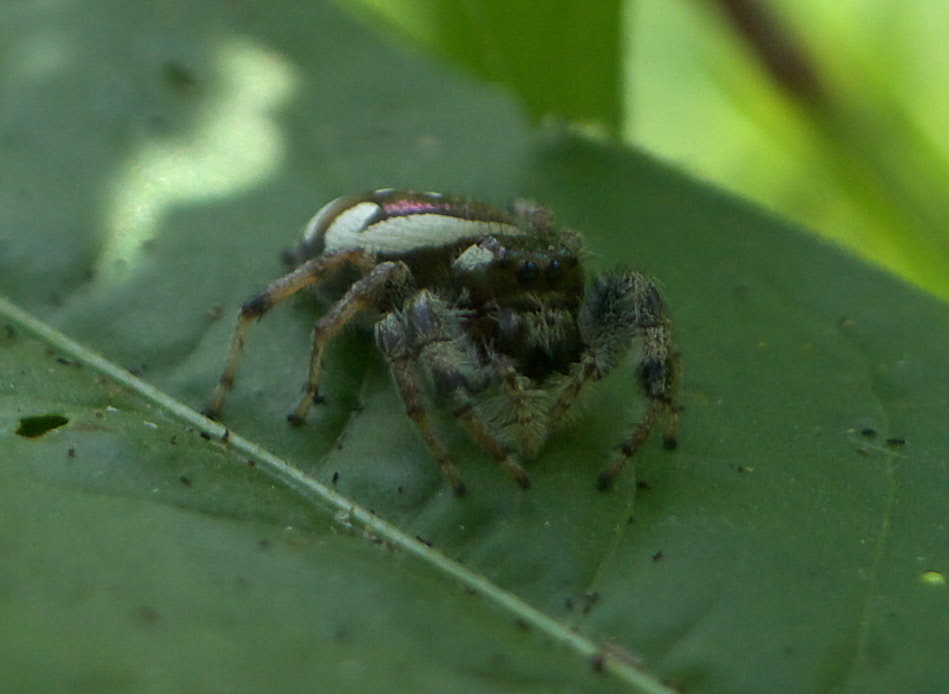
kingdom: Animalia
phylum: Arthropoda
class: Arachnida
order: Araneae
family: Salticidae
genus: Paraphidippus
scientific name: Paraphidippus aurantius
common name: Jumping spiders
